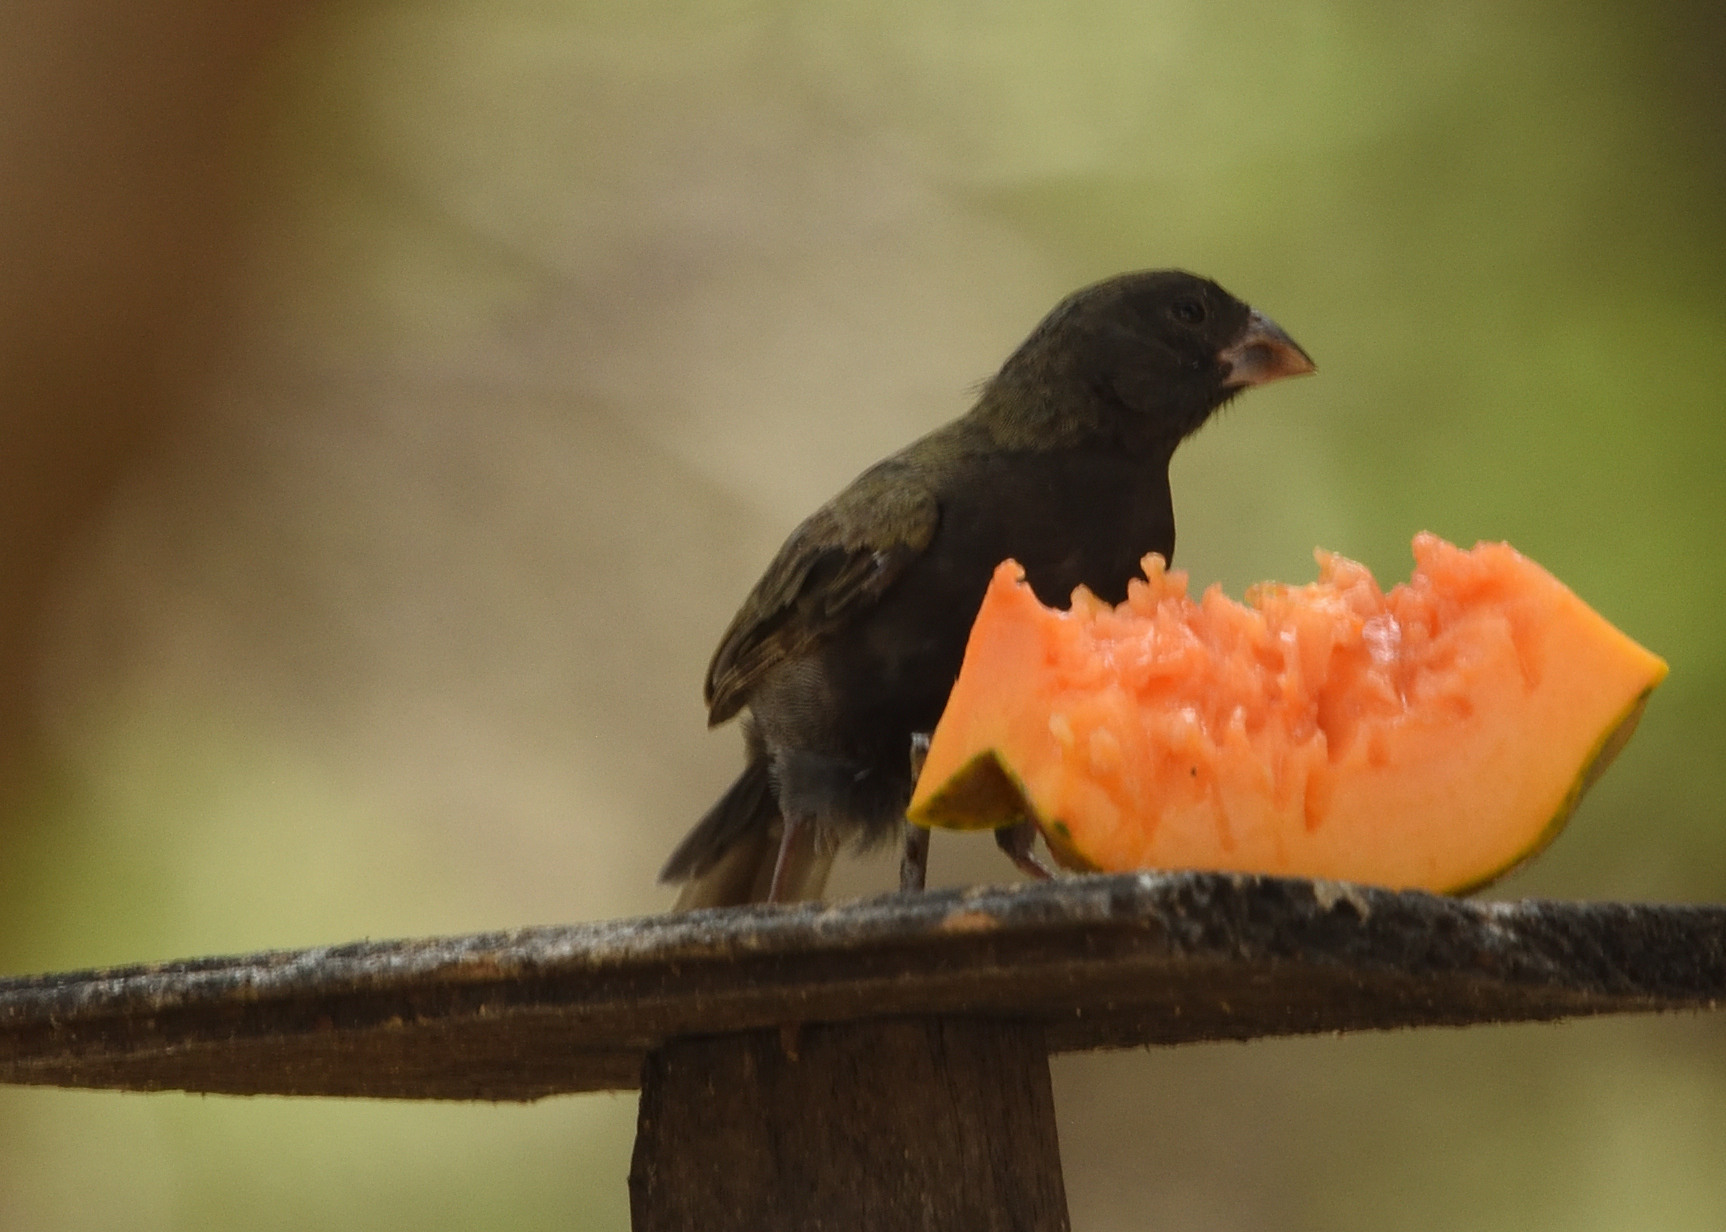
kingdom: Animalia
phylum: Chordata
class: Aves
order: Passeriformes
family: Thraupidae
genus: Melanospiza
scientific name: Melanospiza bicolor
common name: Black-faced grassquit
